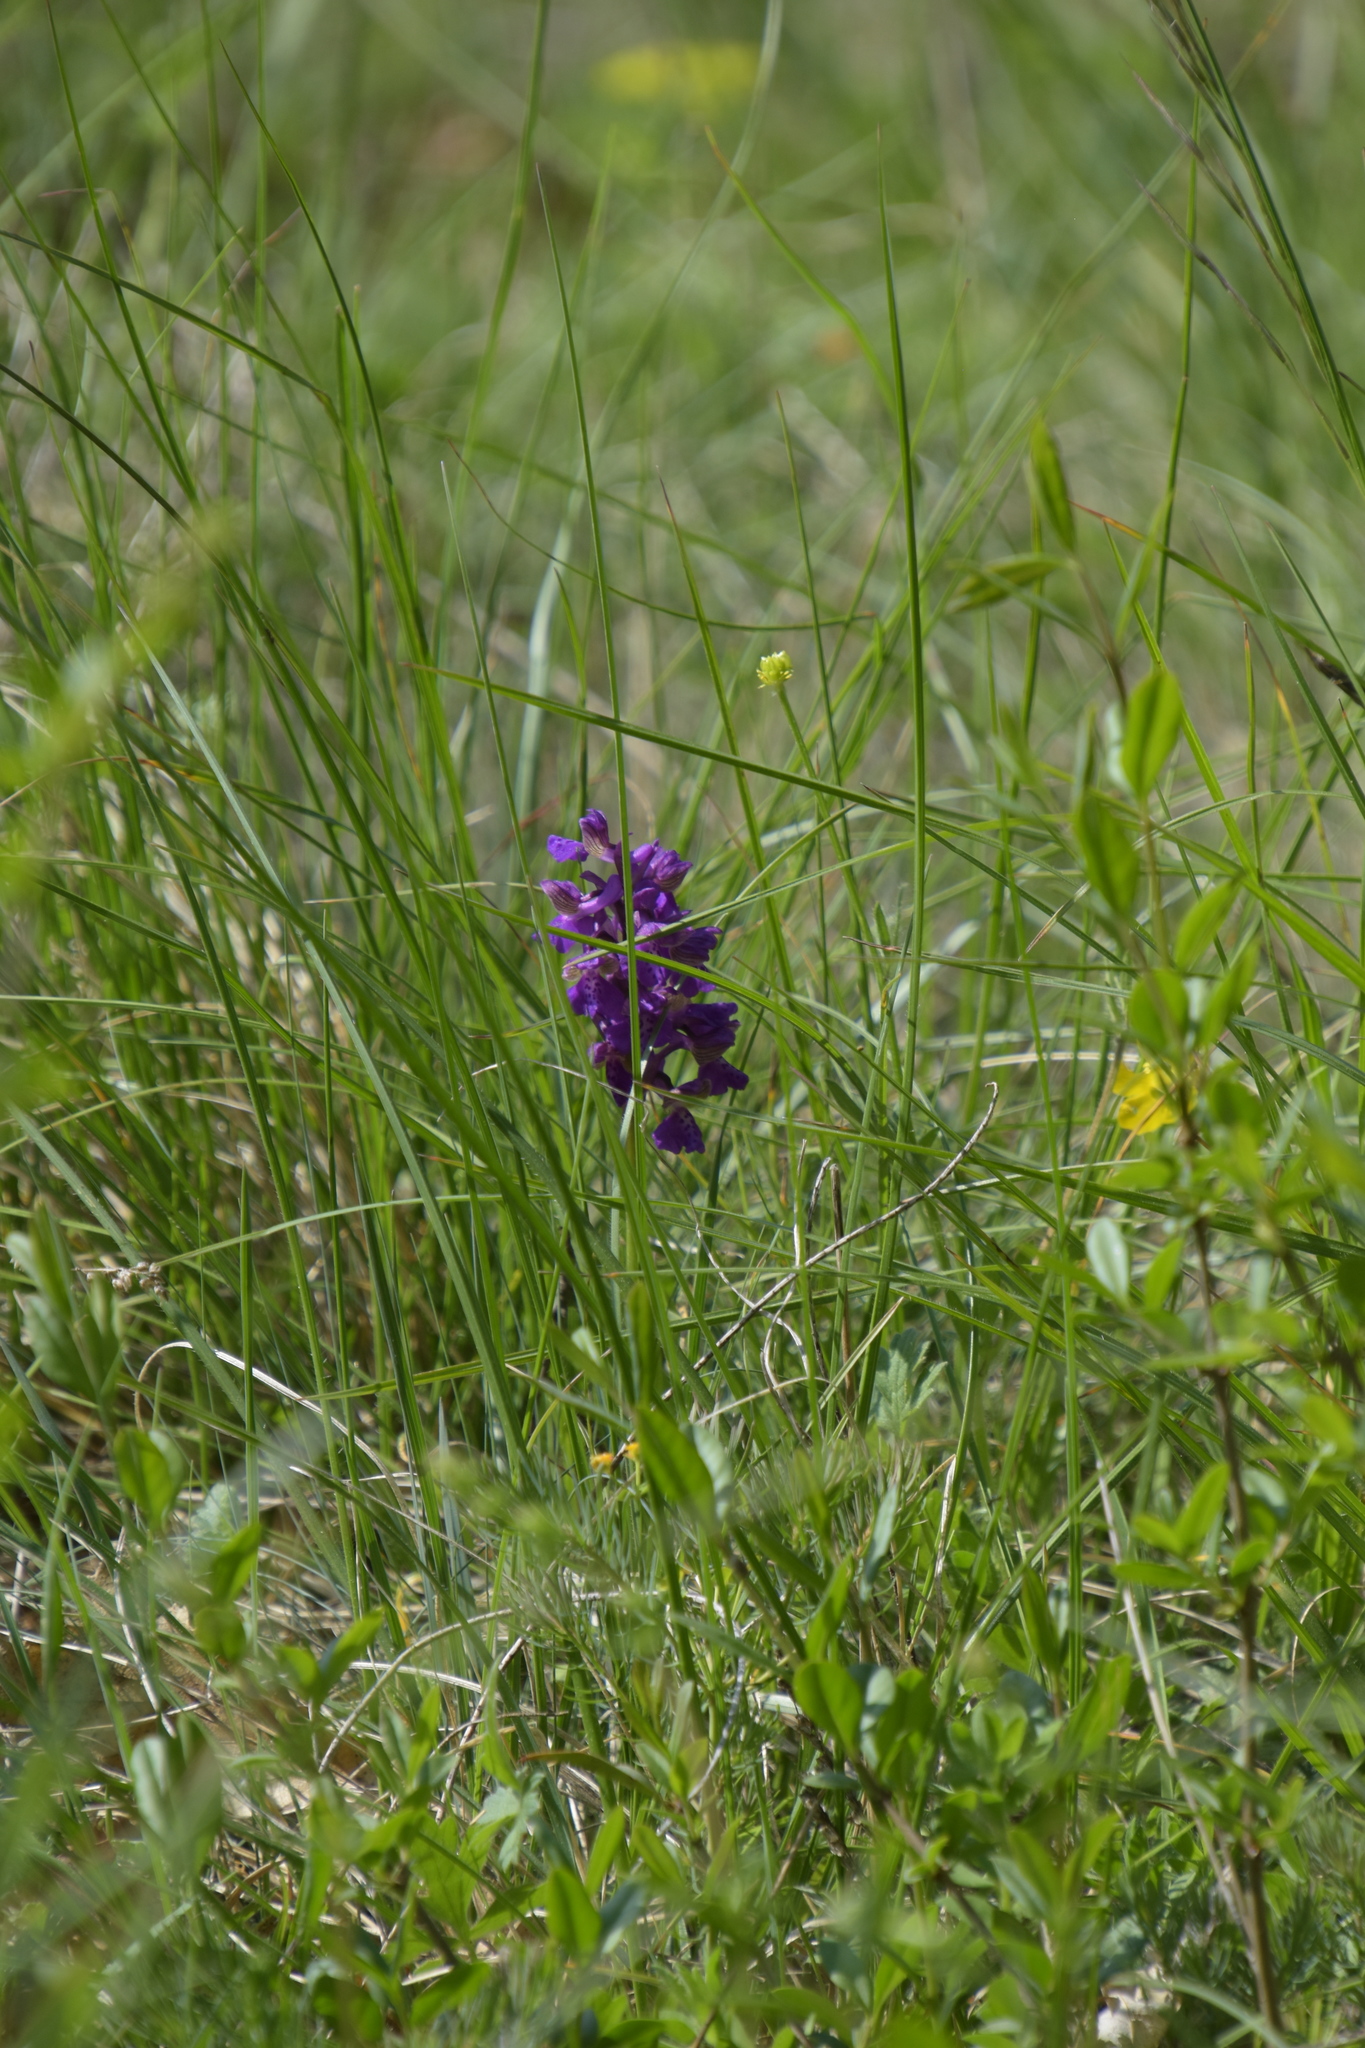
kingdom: Plantae
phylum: Tracheophyta
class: Liliopsida
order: Asparagales
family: Orchidaceae
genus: Anacamptis
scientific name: Anacamptis morio
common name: Green-winged orchid
